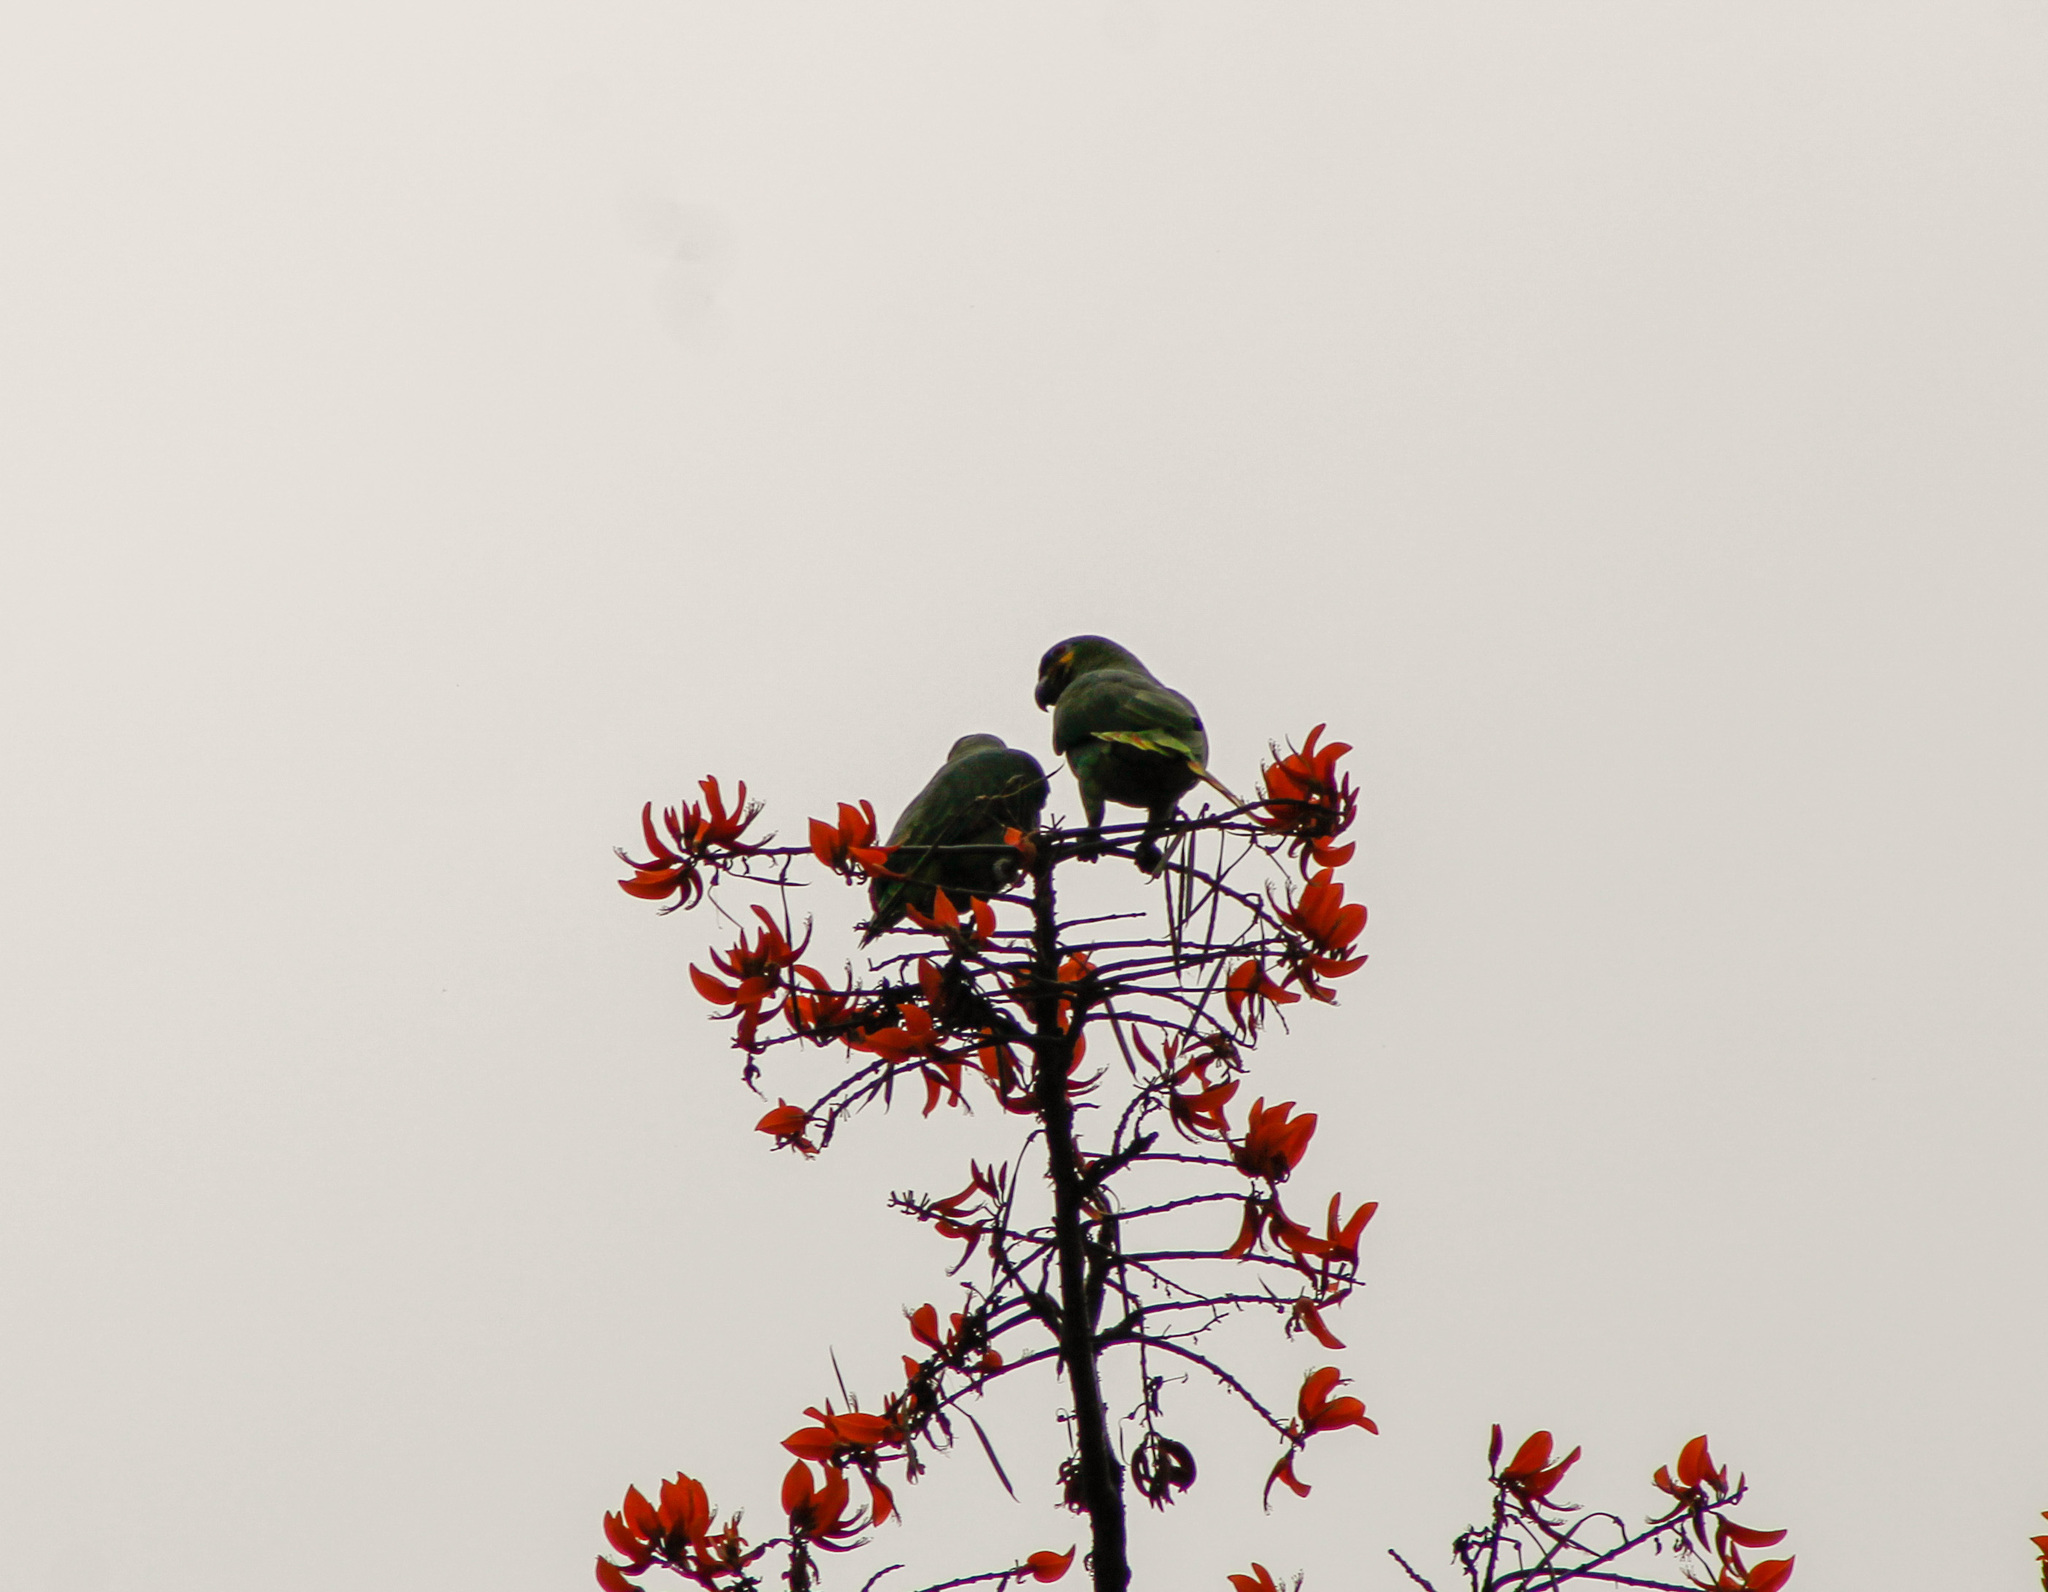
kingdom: Animalia
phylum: Chordata
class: Aves
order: Psittaciformes
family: Psittacidae
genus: Amazona
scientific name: Amazona amazonica
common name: Orange-winged amazon
